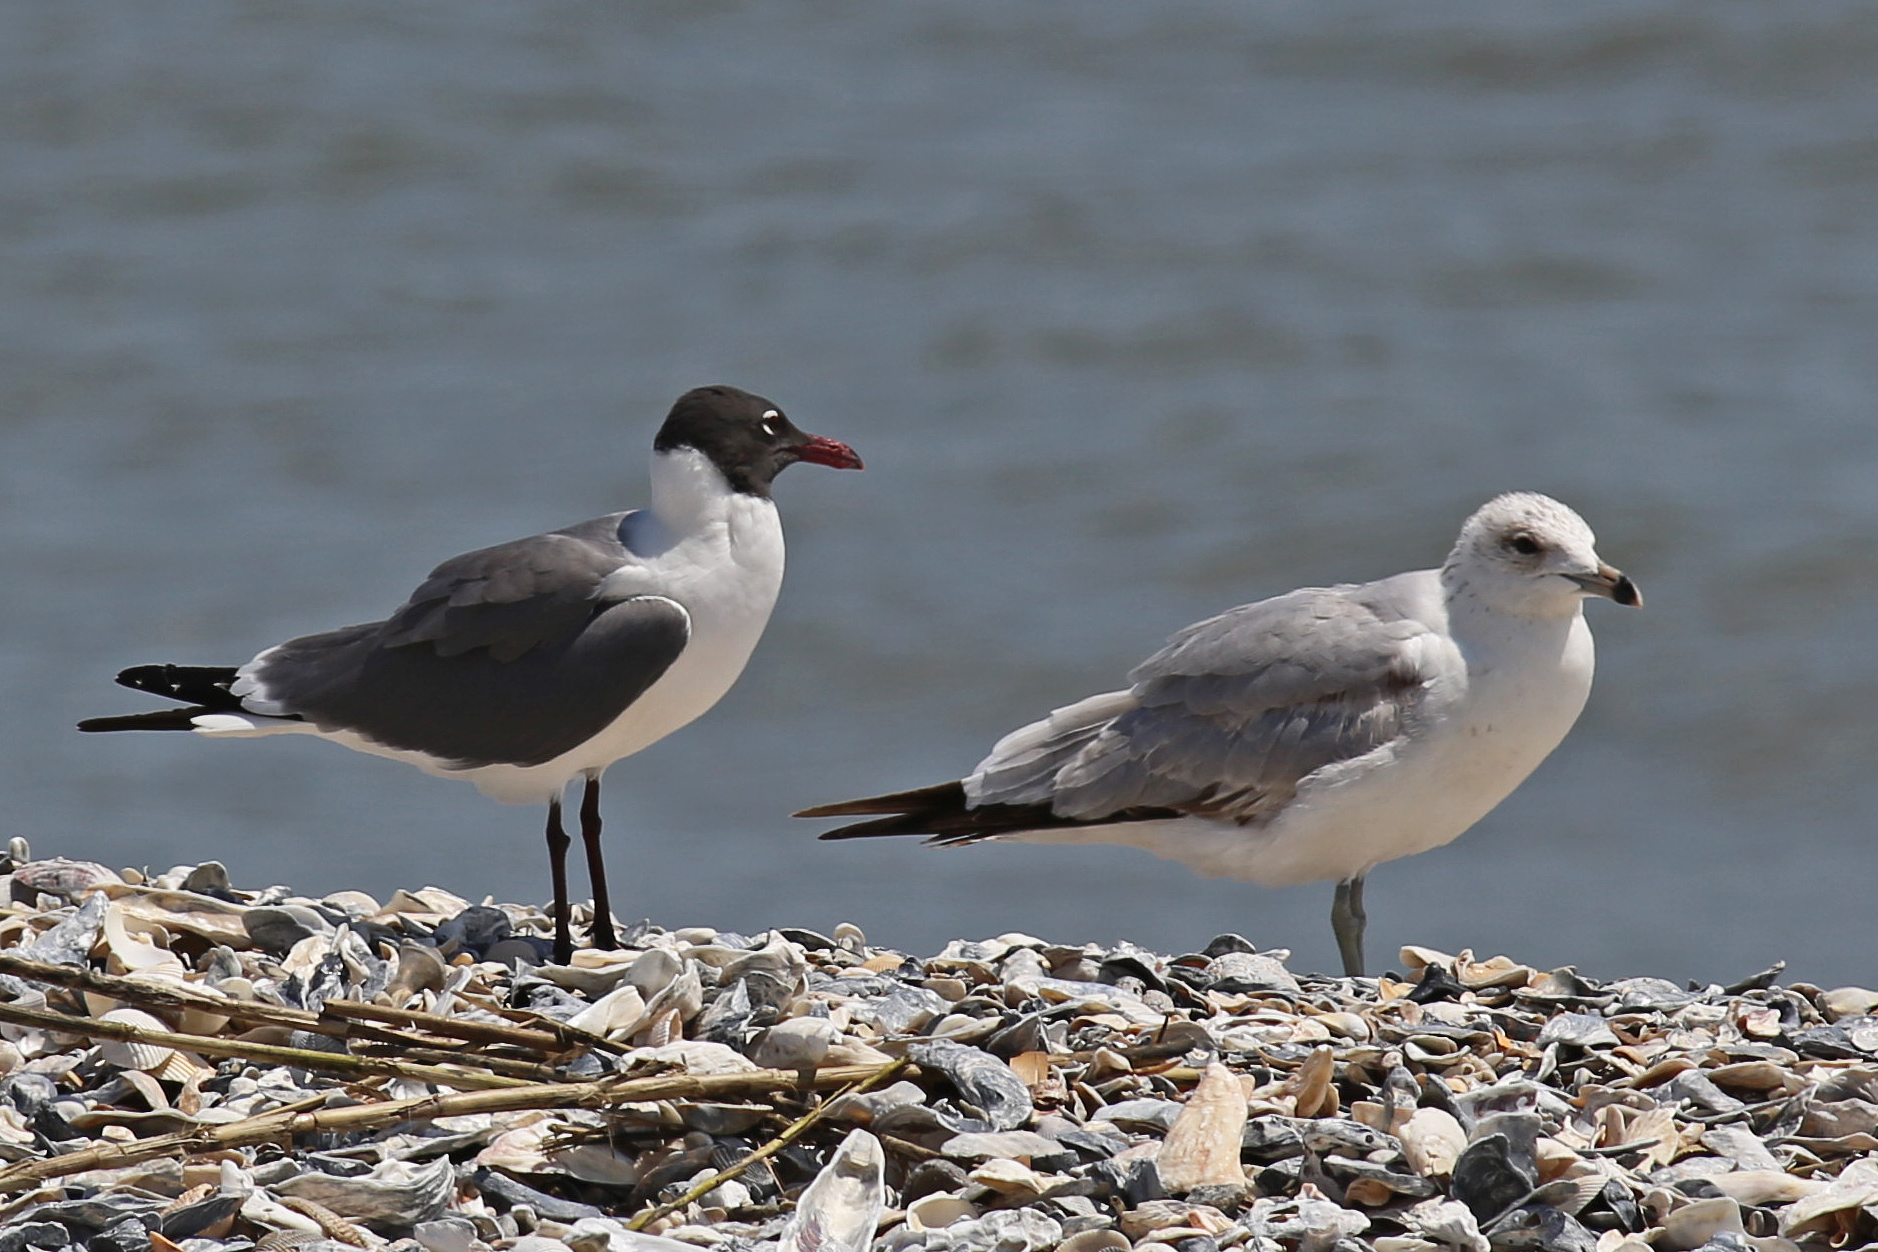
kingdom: Animalia
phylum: Chordata
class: Aves
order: Charadriiformes
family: Laridae
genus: Larus
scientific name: Larus delawarensis
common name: Ring-billed gull
